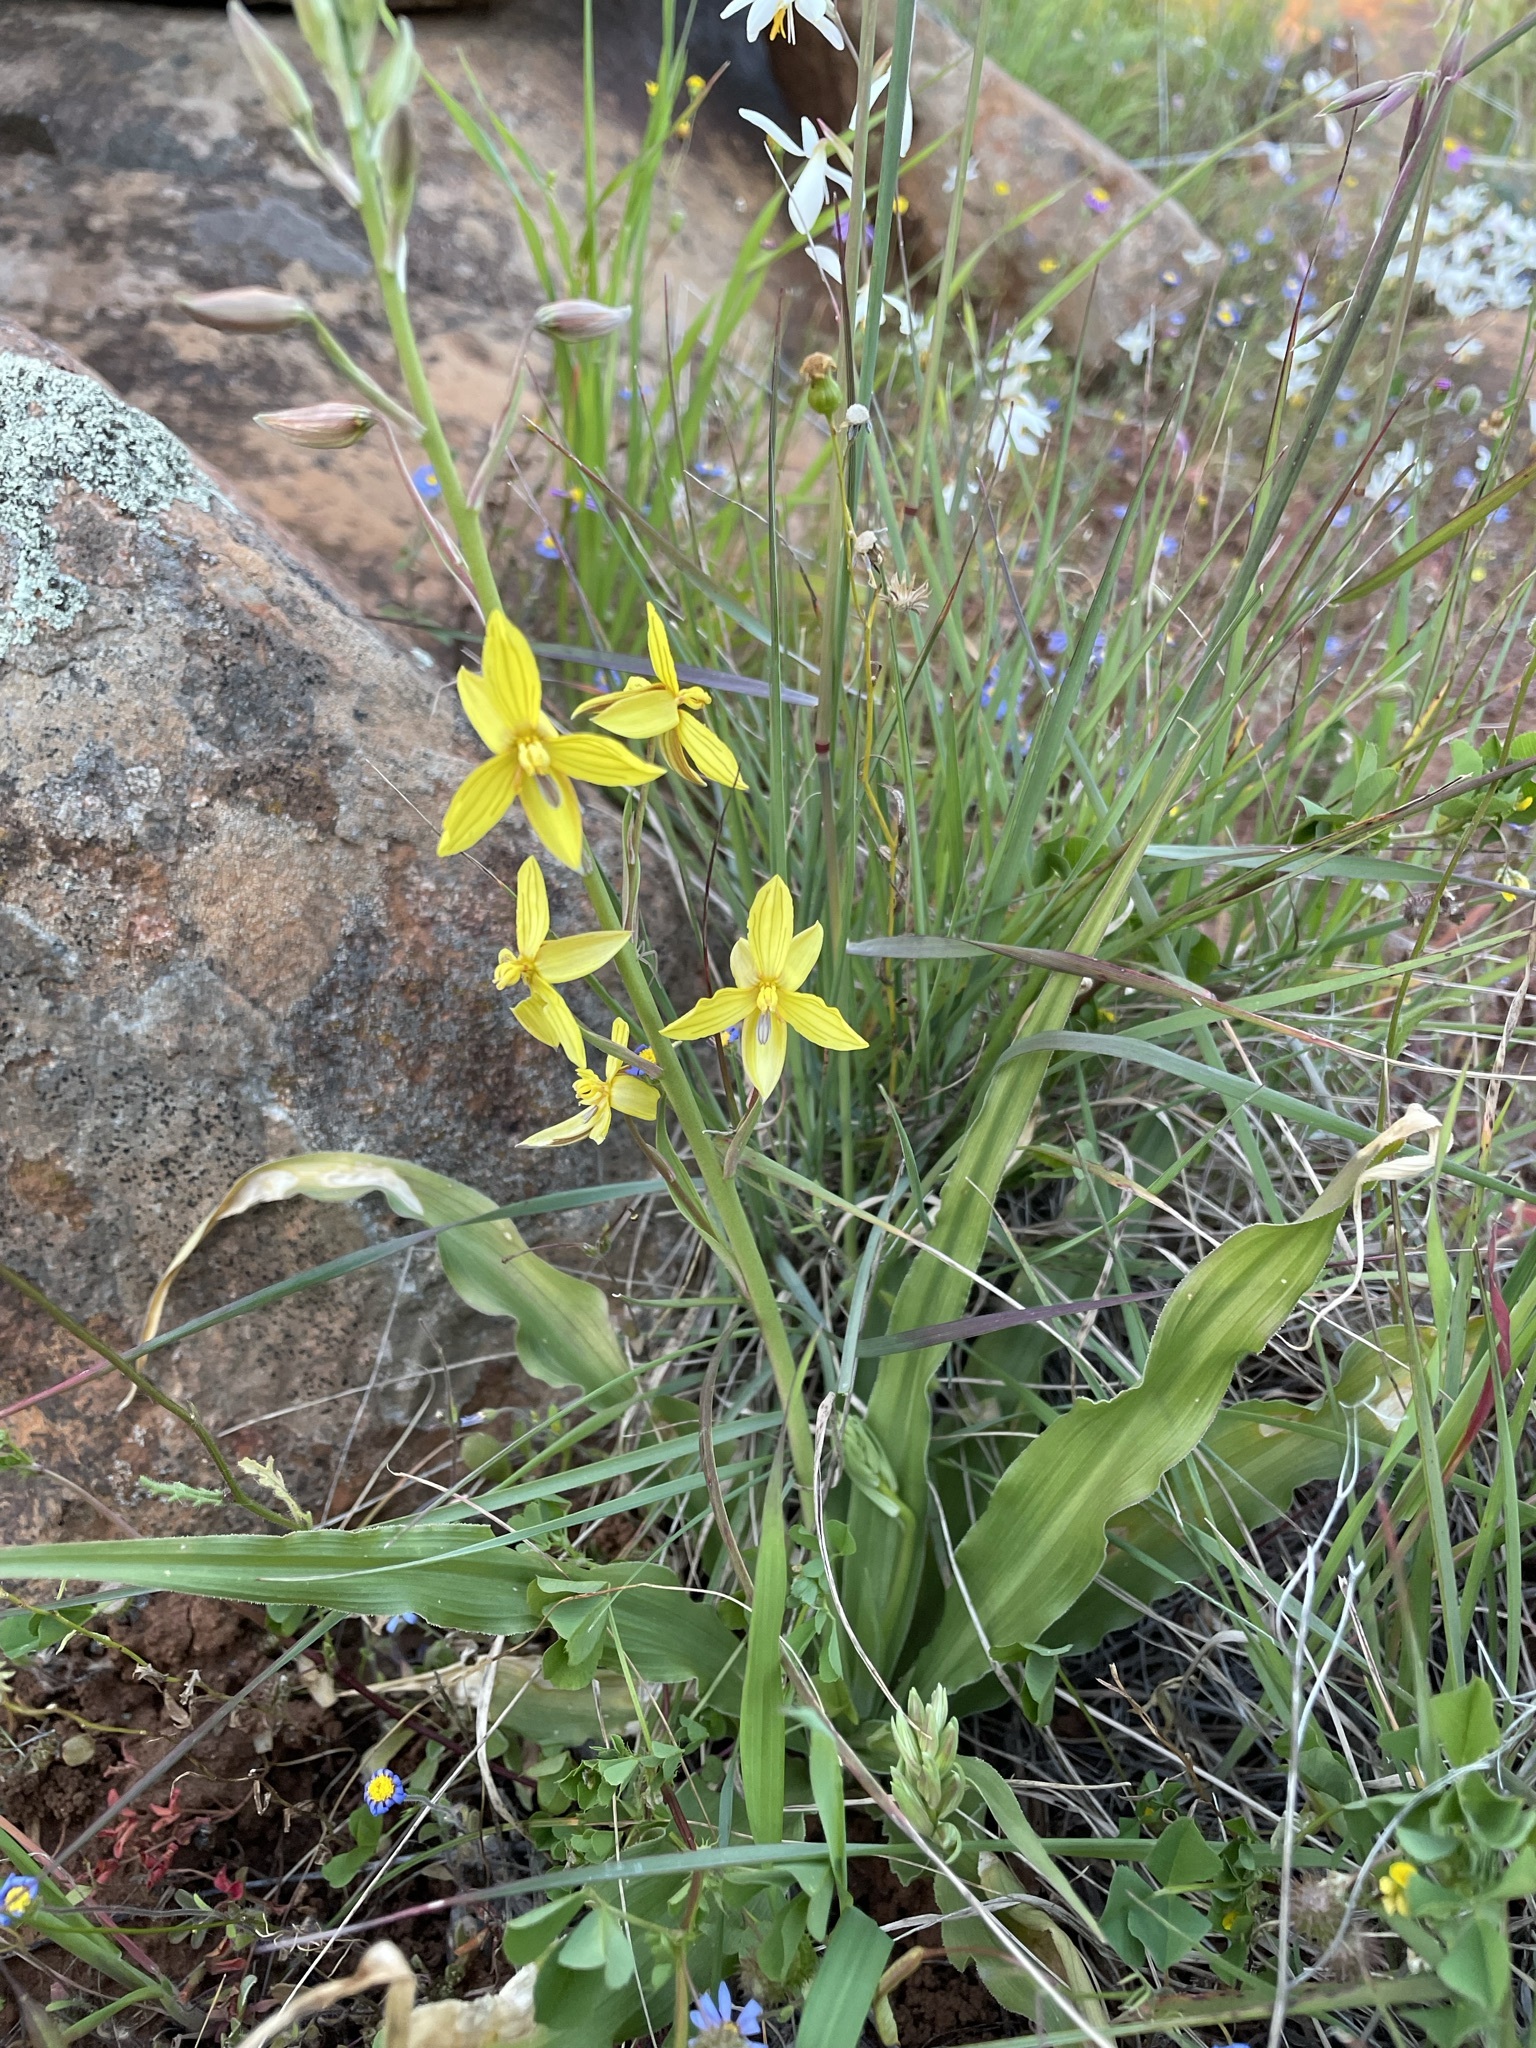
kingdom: Plantae
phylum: Tracheophyta
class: Liliopsida
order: Asparagales
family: Tecophilaeaceae
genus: Cyanella
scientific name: Cyanella lutea
